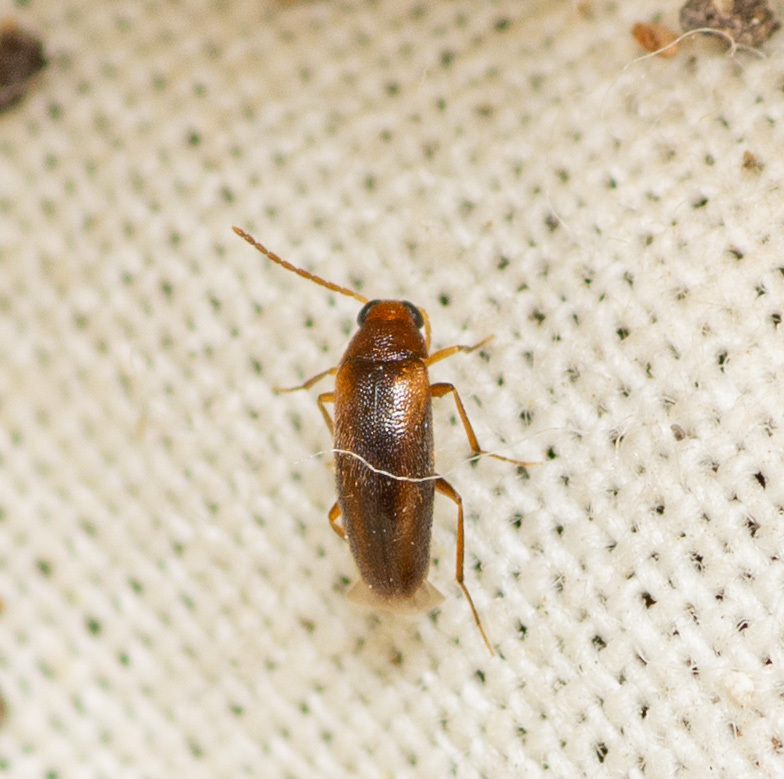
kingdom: Animalia
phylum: Arthropoda
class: Insecta
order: Coleoptera
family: Melandryidae
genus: Symphora
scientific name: Symphora rugosa
